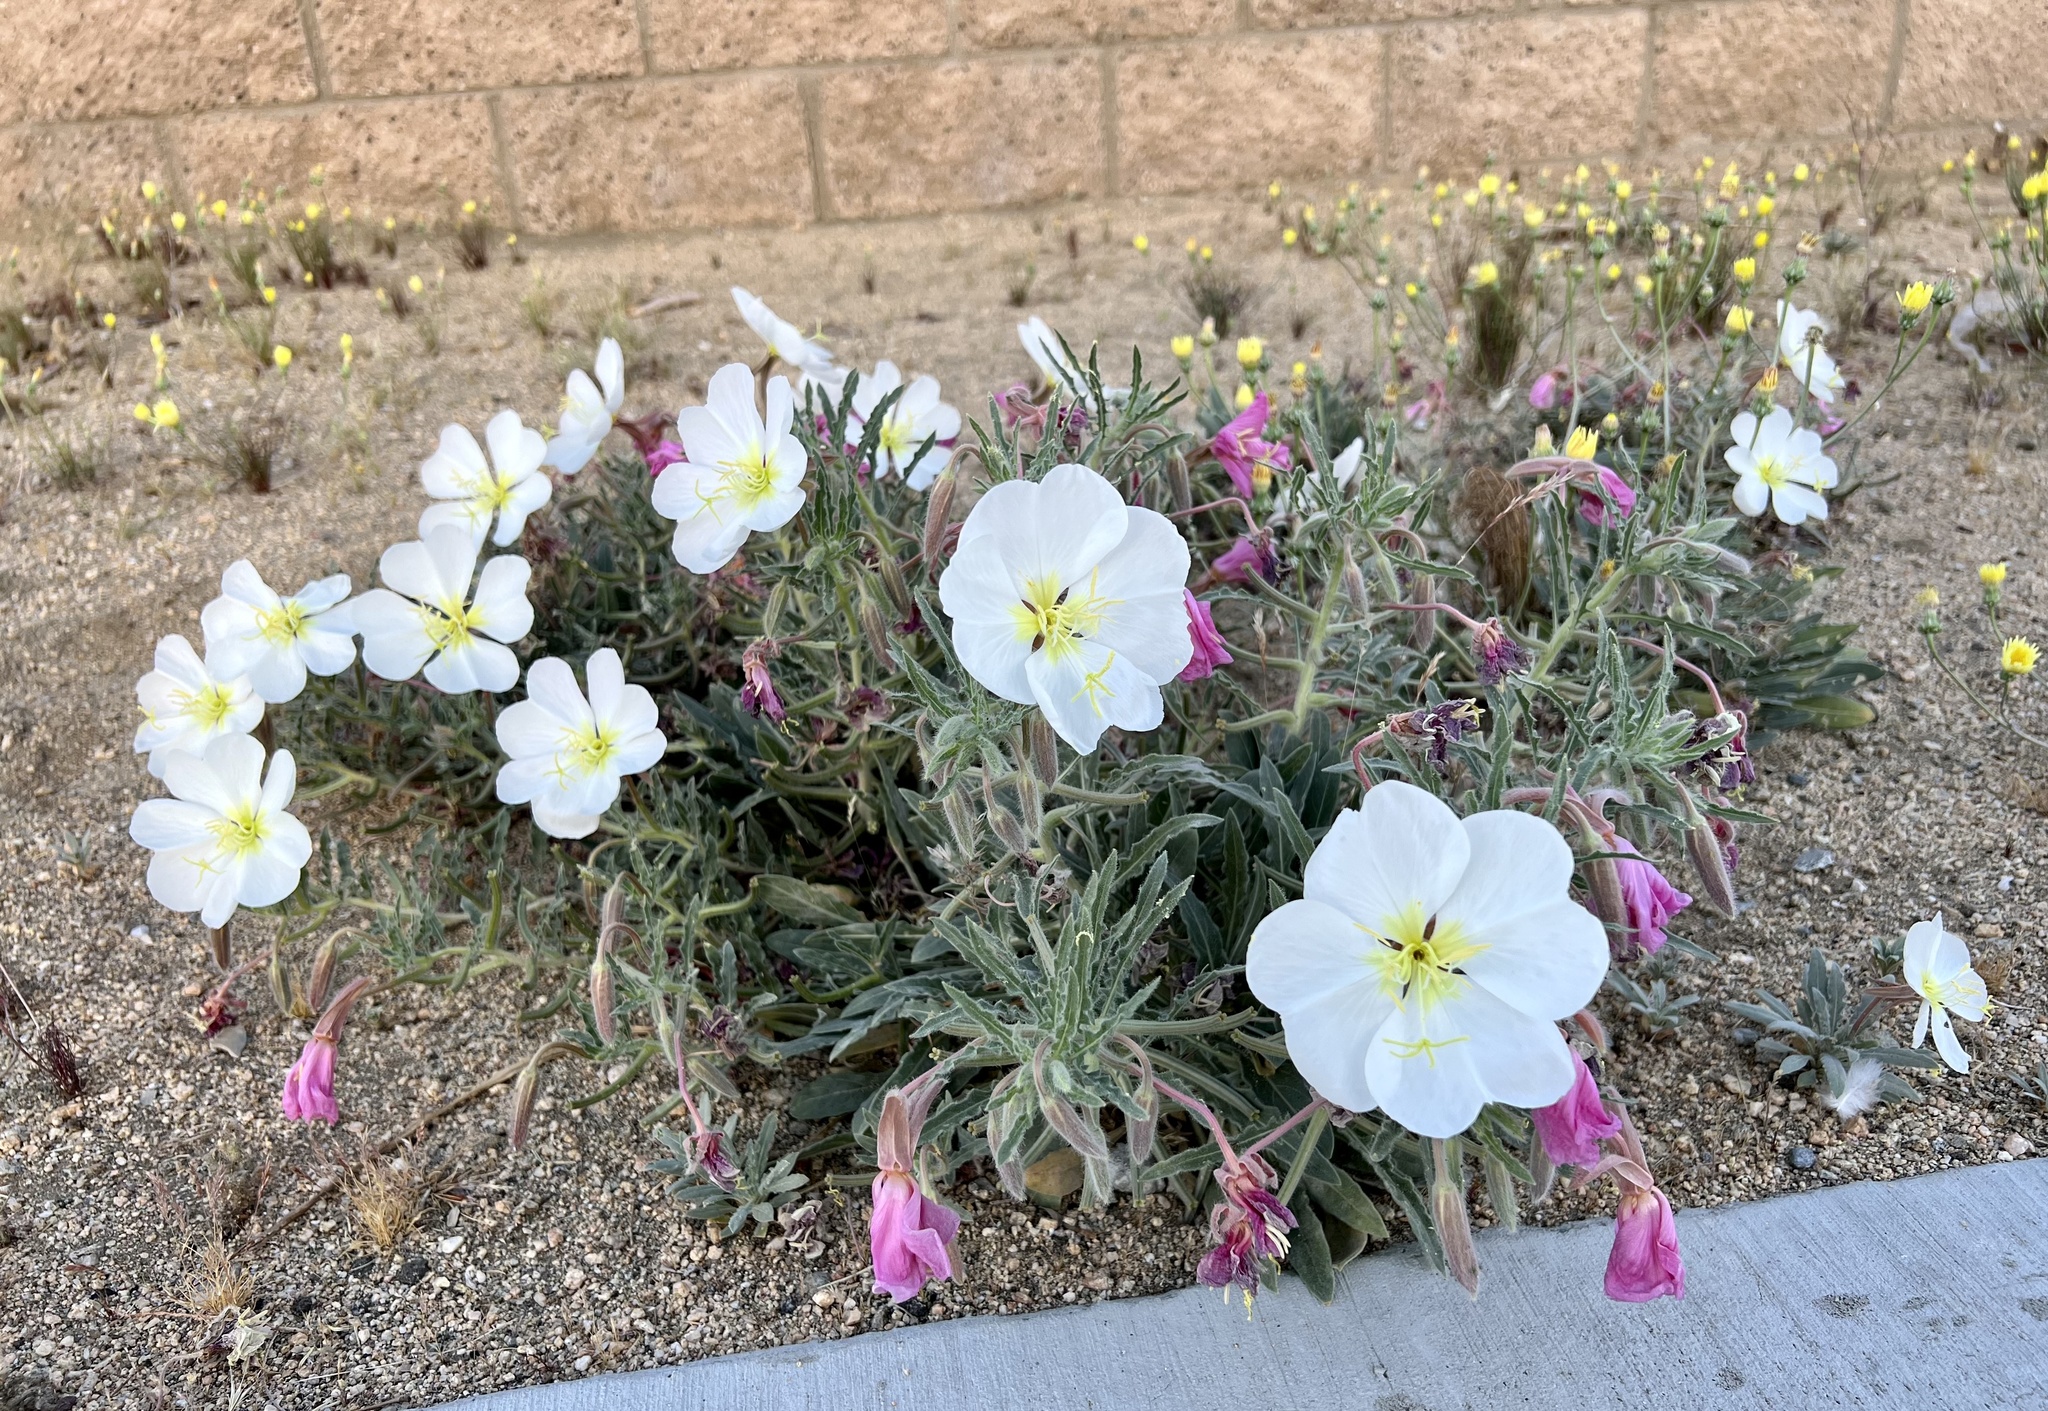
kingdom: Plantae
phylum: Tracheophyta
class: Magnoliopsida
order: Myrtales
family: Onagraceae
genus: Oenothera
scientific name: Oenothera californica
